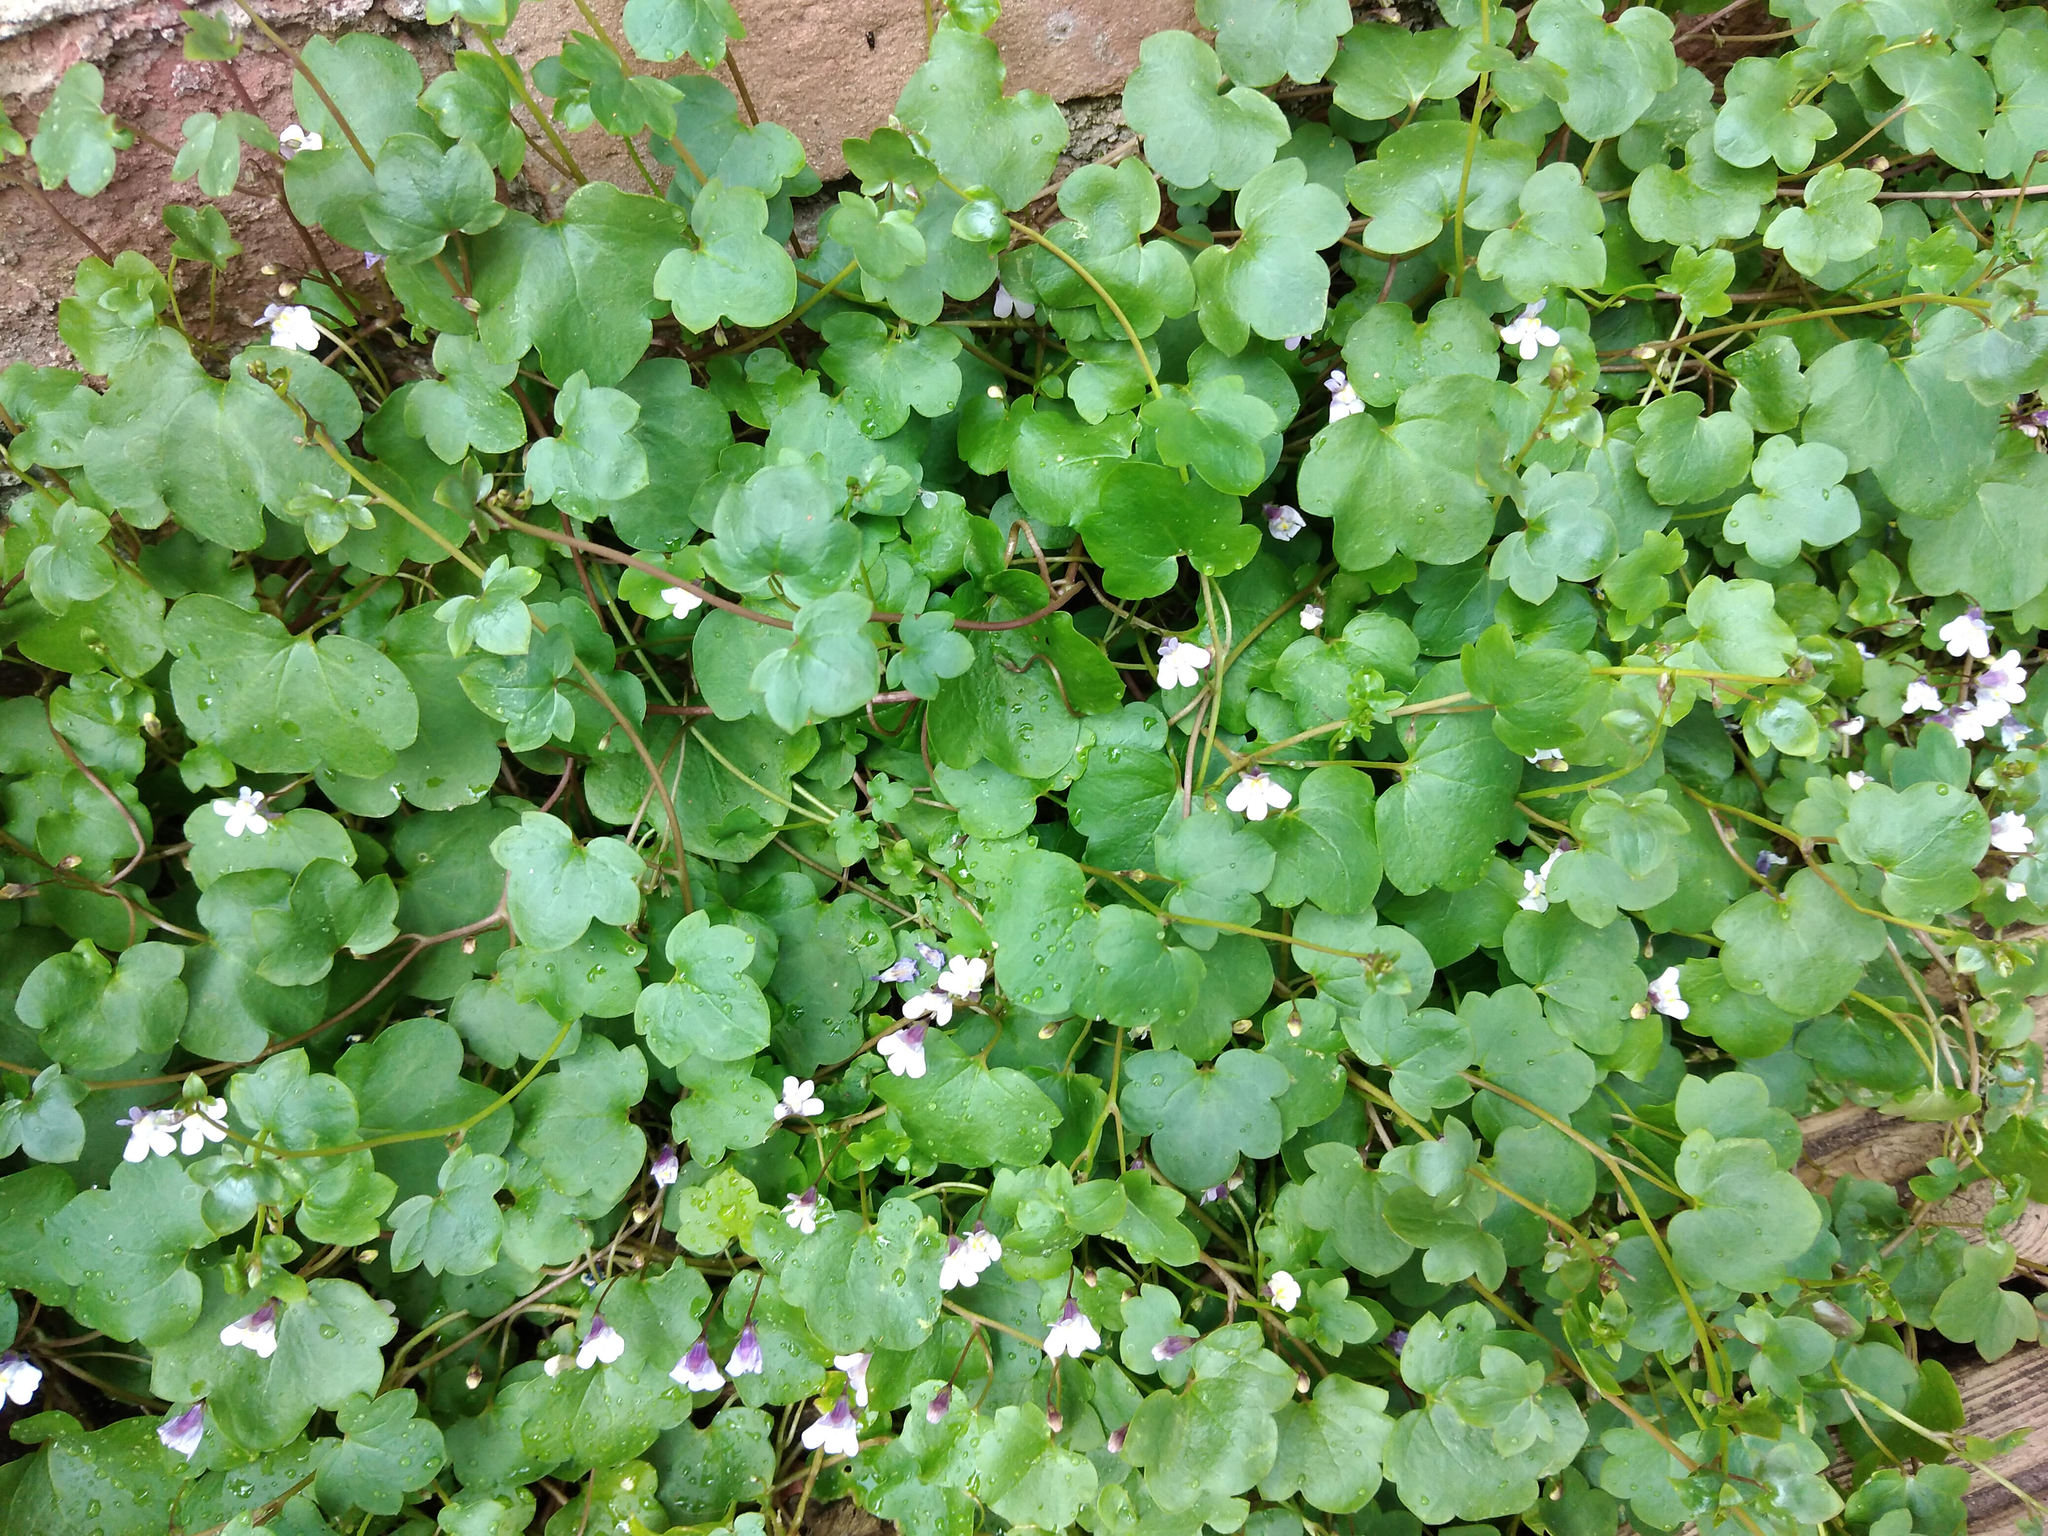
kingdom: Plantae
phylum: Tracheophyta
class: Magnoliopsida
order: Lamiales
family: Plantaginaceae
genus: Cymbalaria
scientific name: Cymbalaria muralis
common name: Ivy-leaved toadflax
